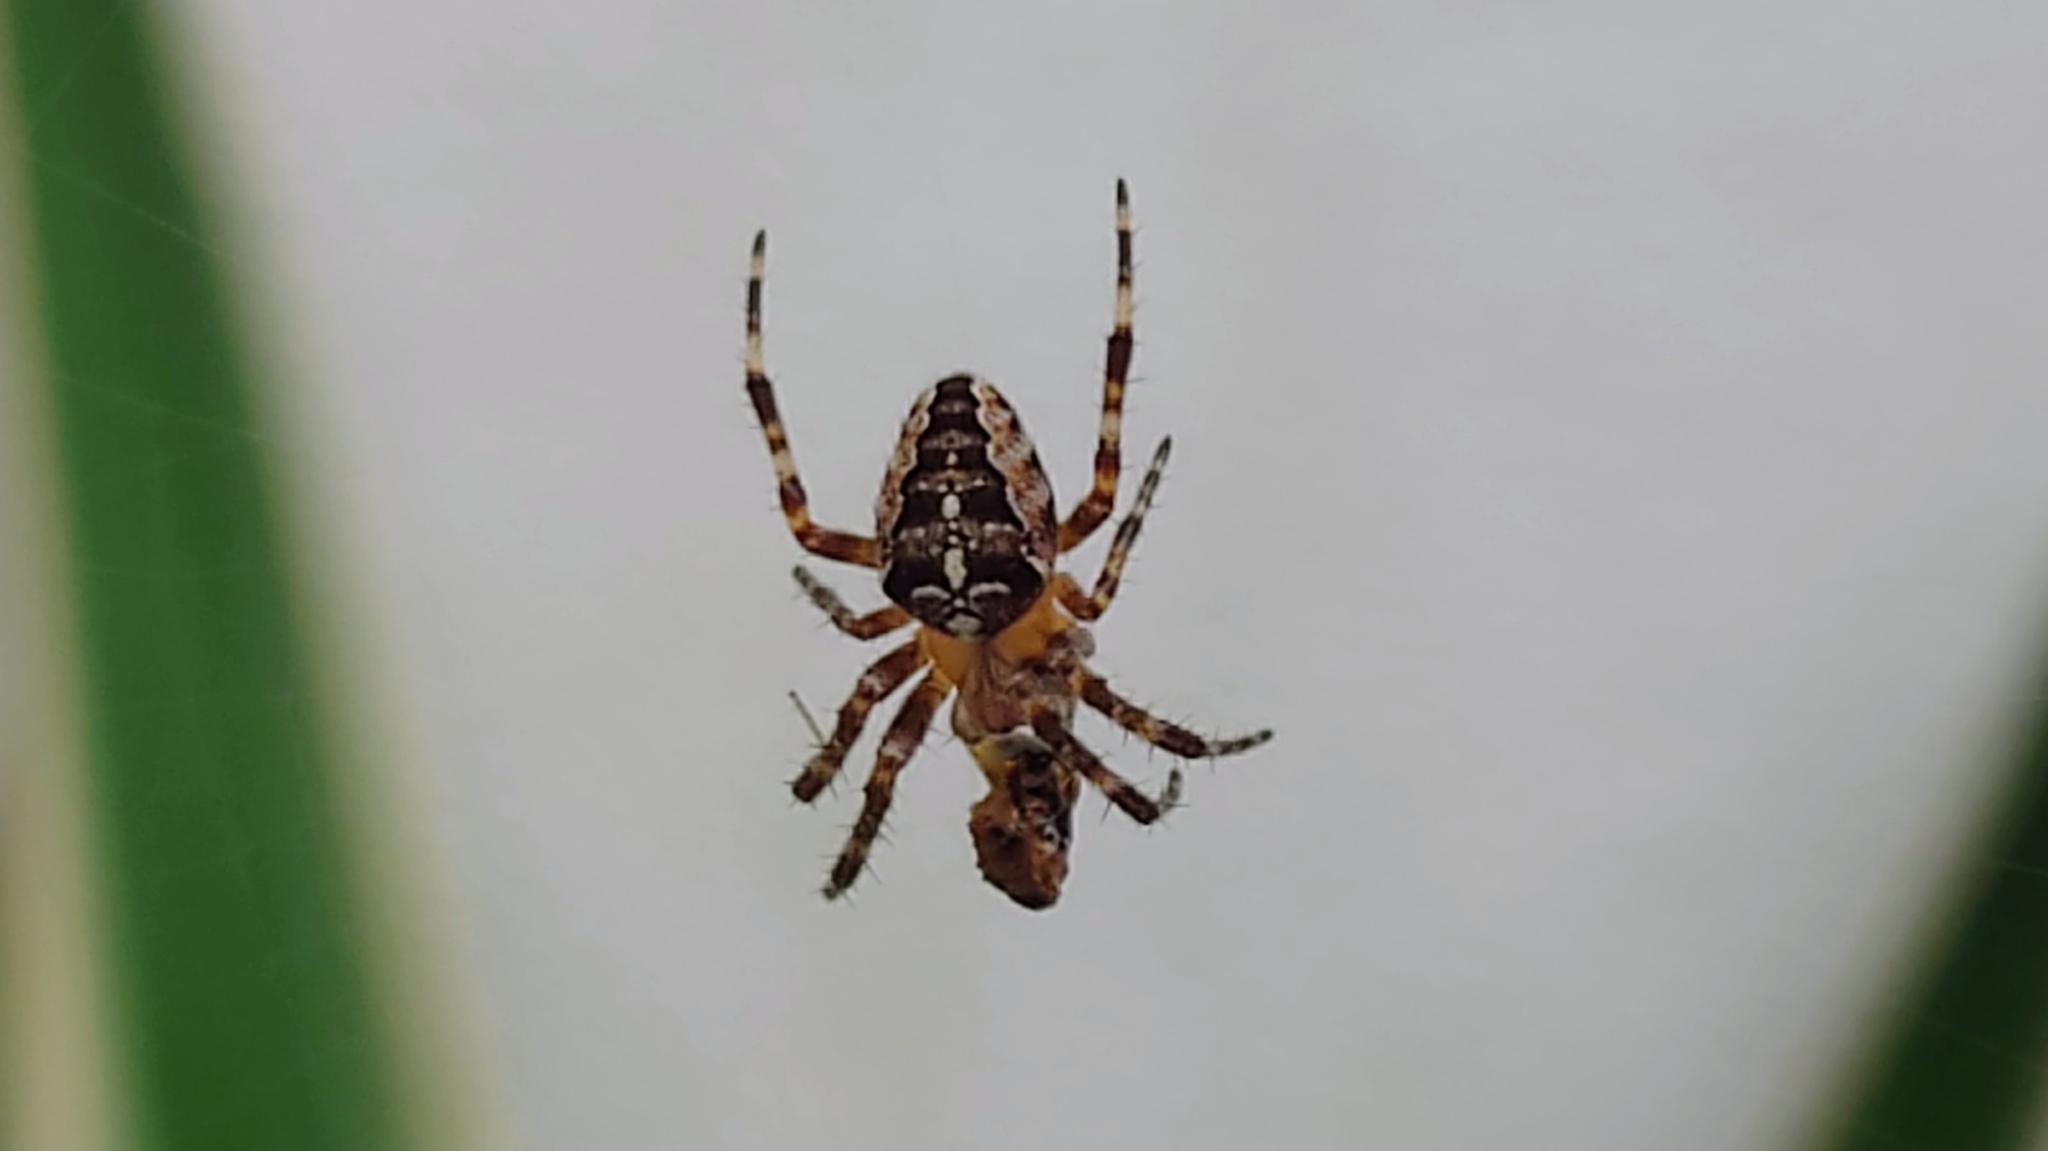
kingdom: Animalia
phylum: Arthropoda
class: Arachnida
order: Araneae
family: Araneidae
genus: Araneus
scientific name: Araneus diadematus
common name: Cross orbweaver
